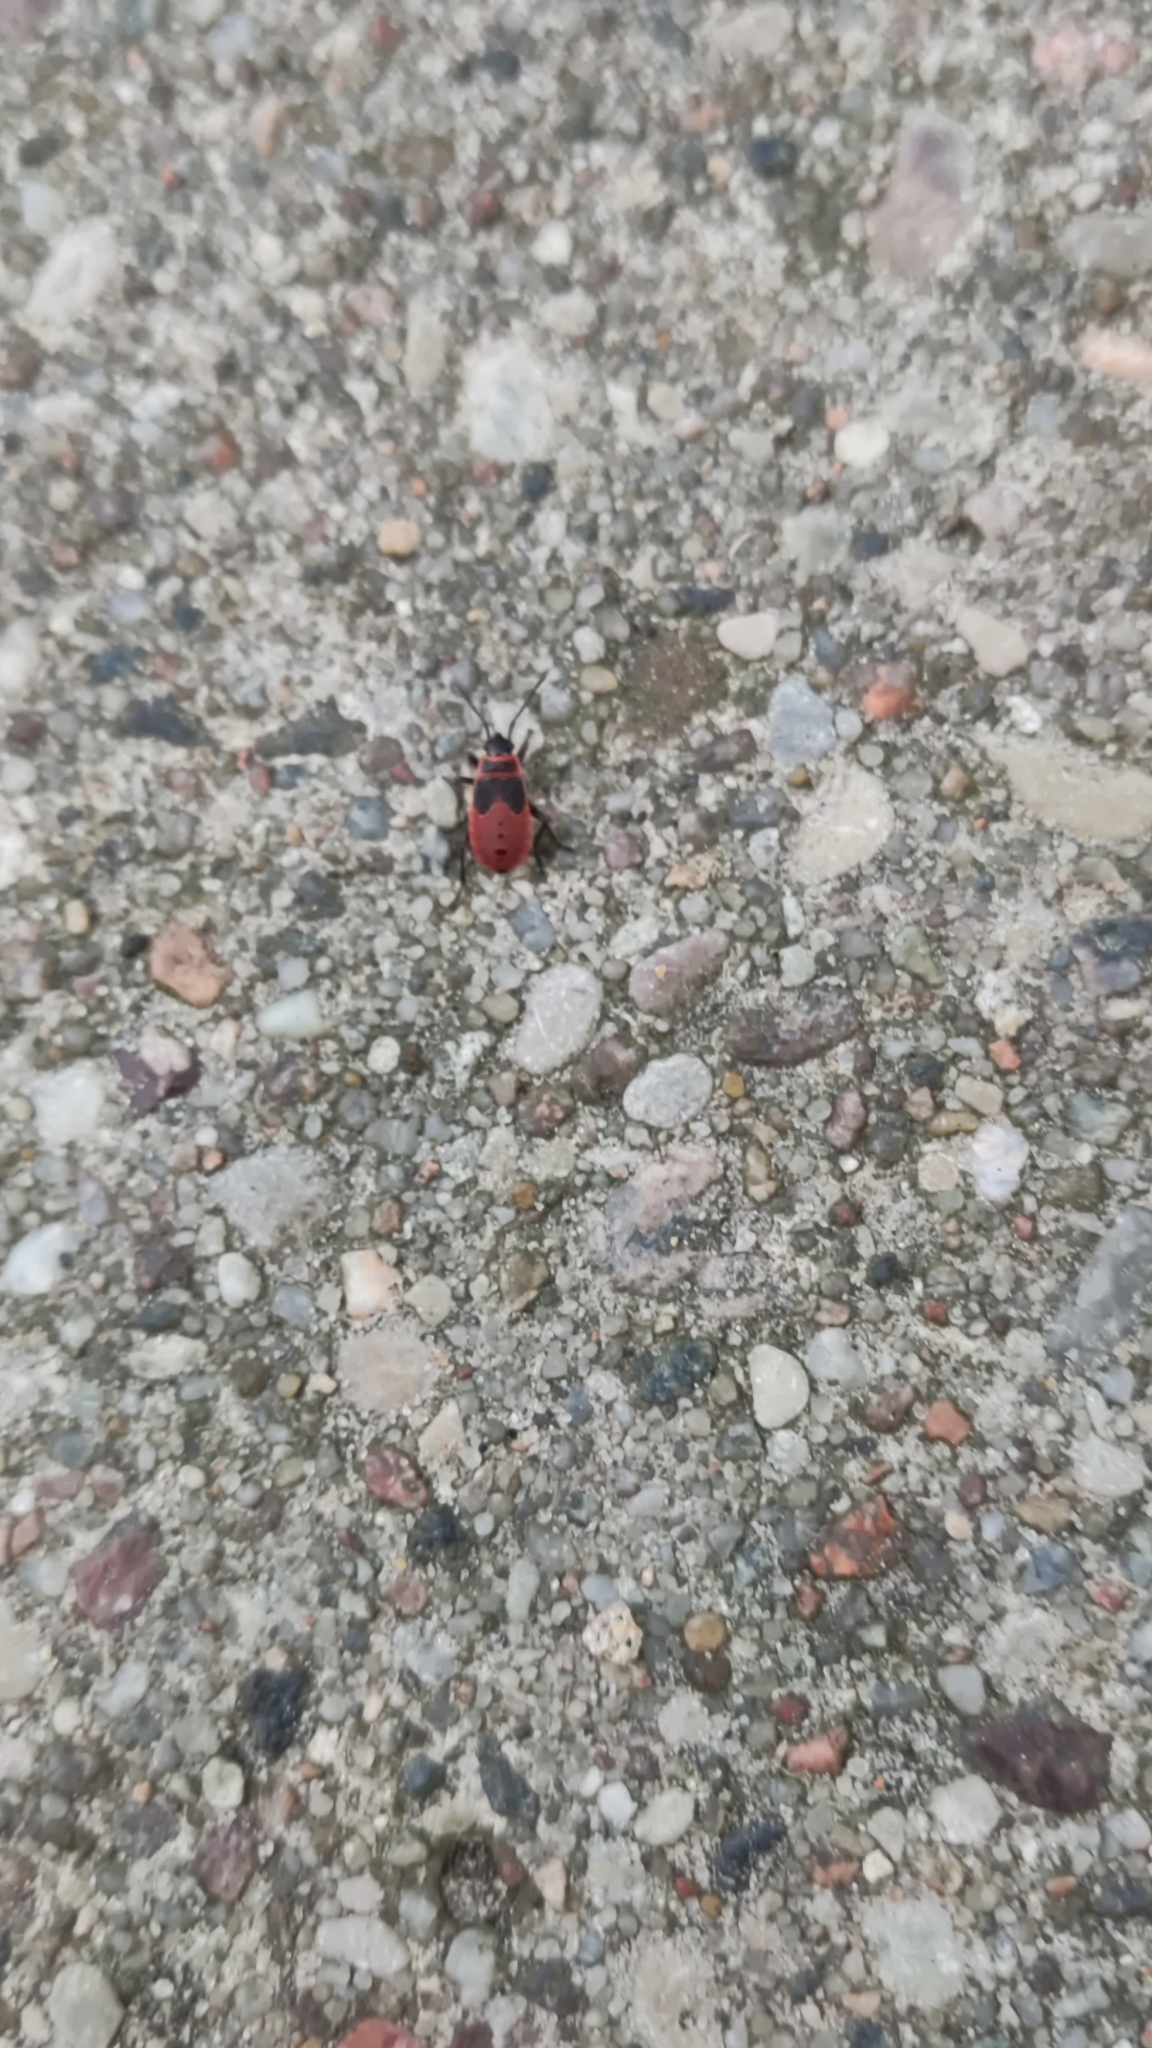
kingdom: Animalia
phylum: Arthropoda
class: Insecta
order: Hemiptera
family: Pyrrhocoridae
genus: Pyrrhocoris
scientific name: Pyrrhocoris apterus
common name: Firebug
